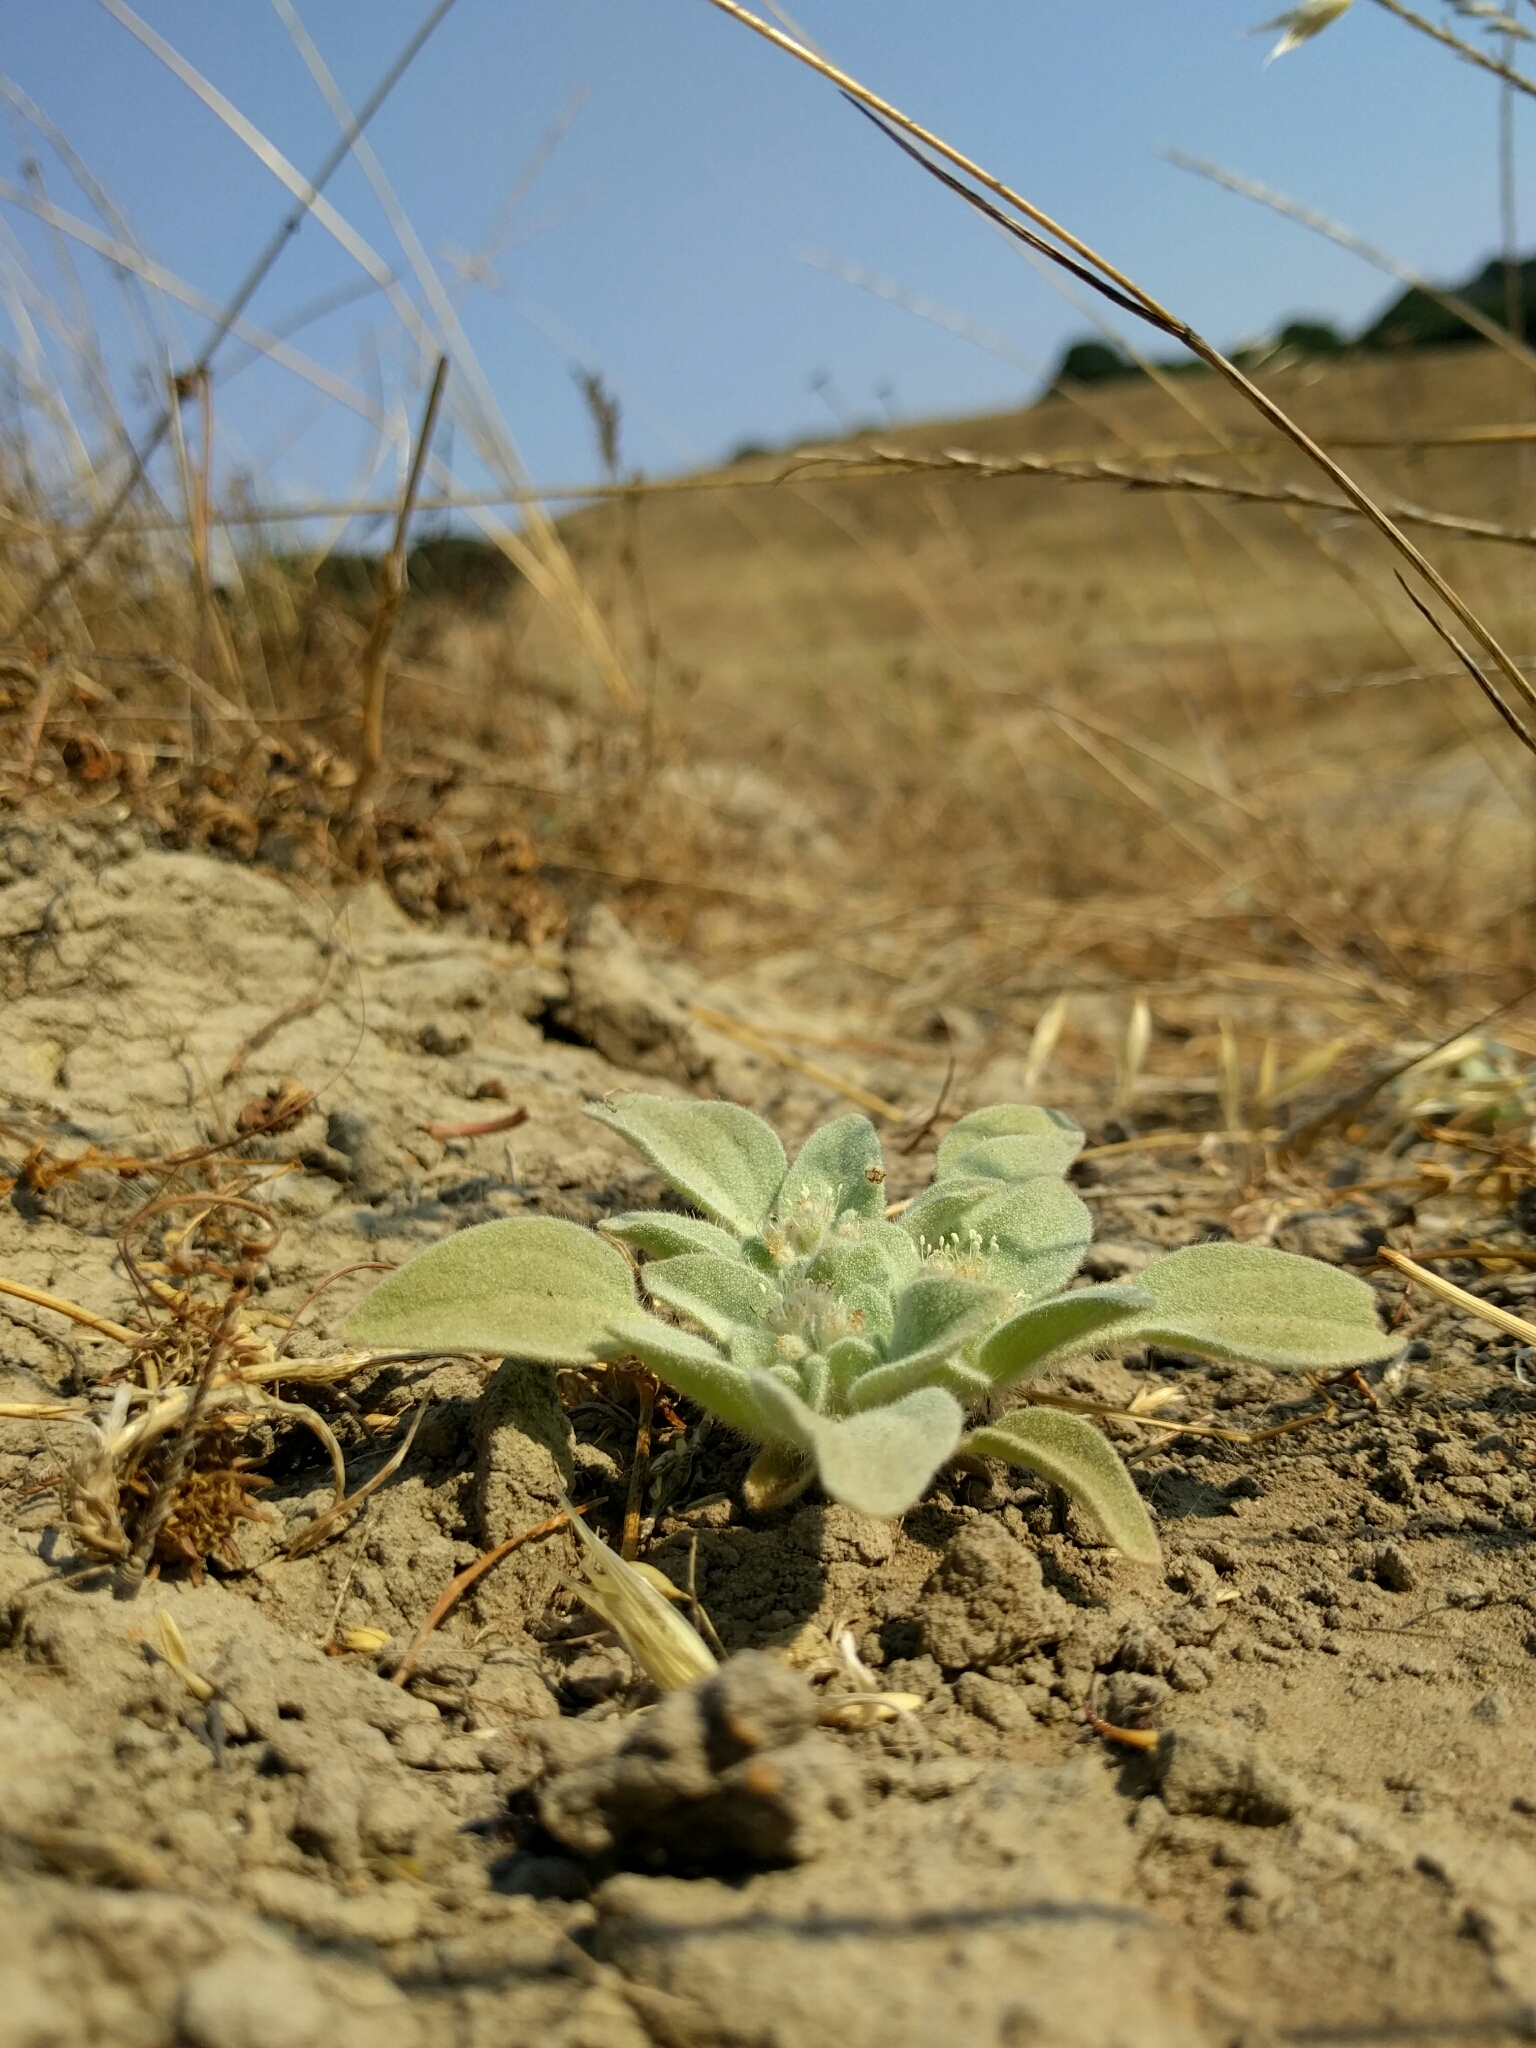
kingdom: Plantae
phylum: Tracheophyta
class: Magnoliopsida
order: Malpighiales
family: Euphorbiaceae
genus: Croton
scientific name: Croton setiger
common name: Dove weed
